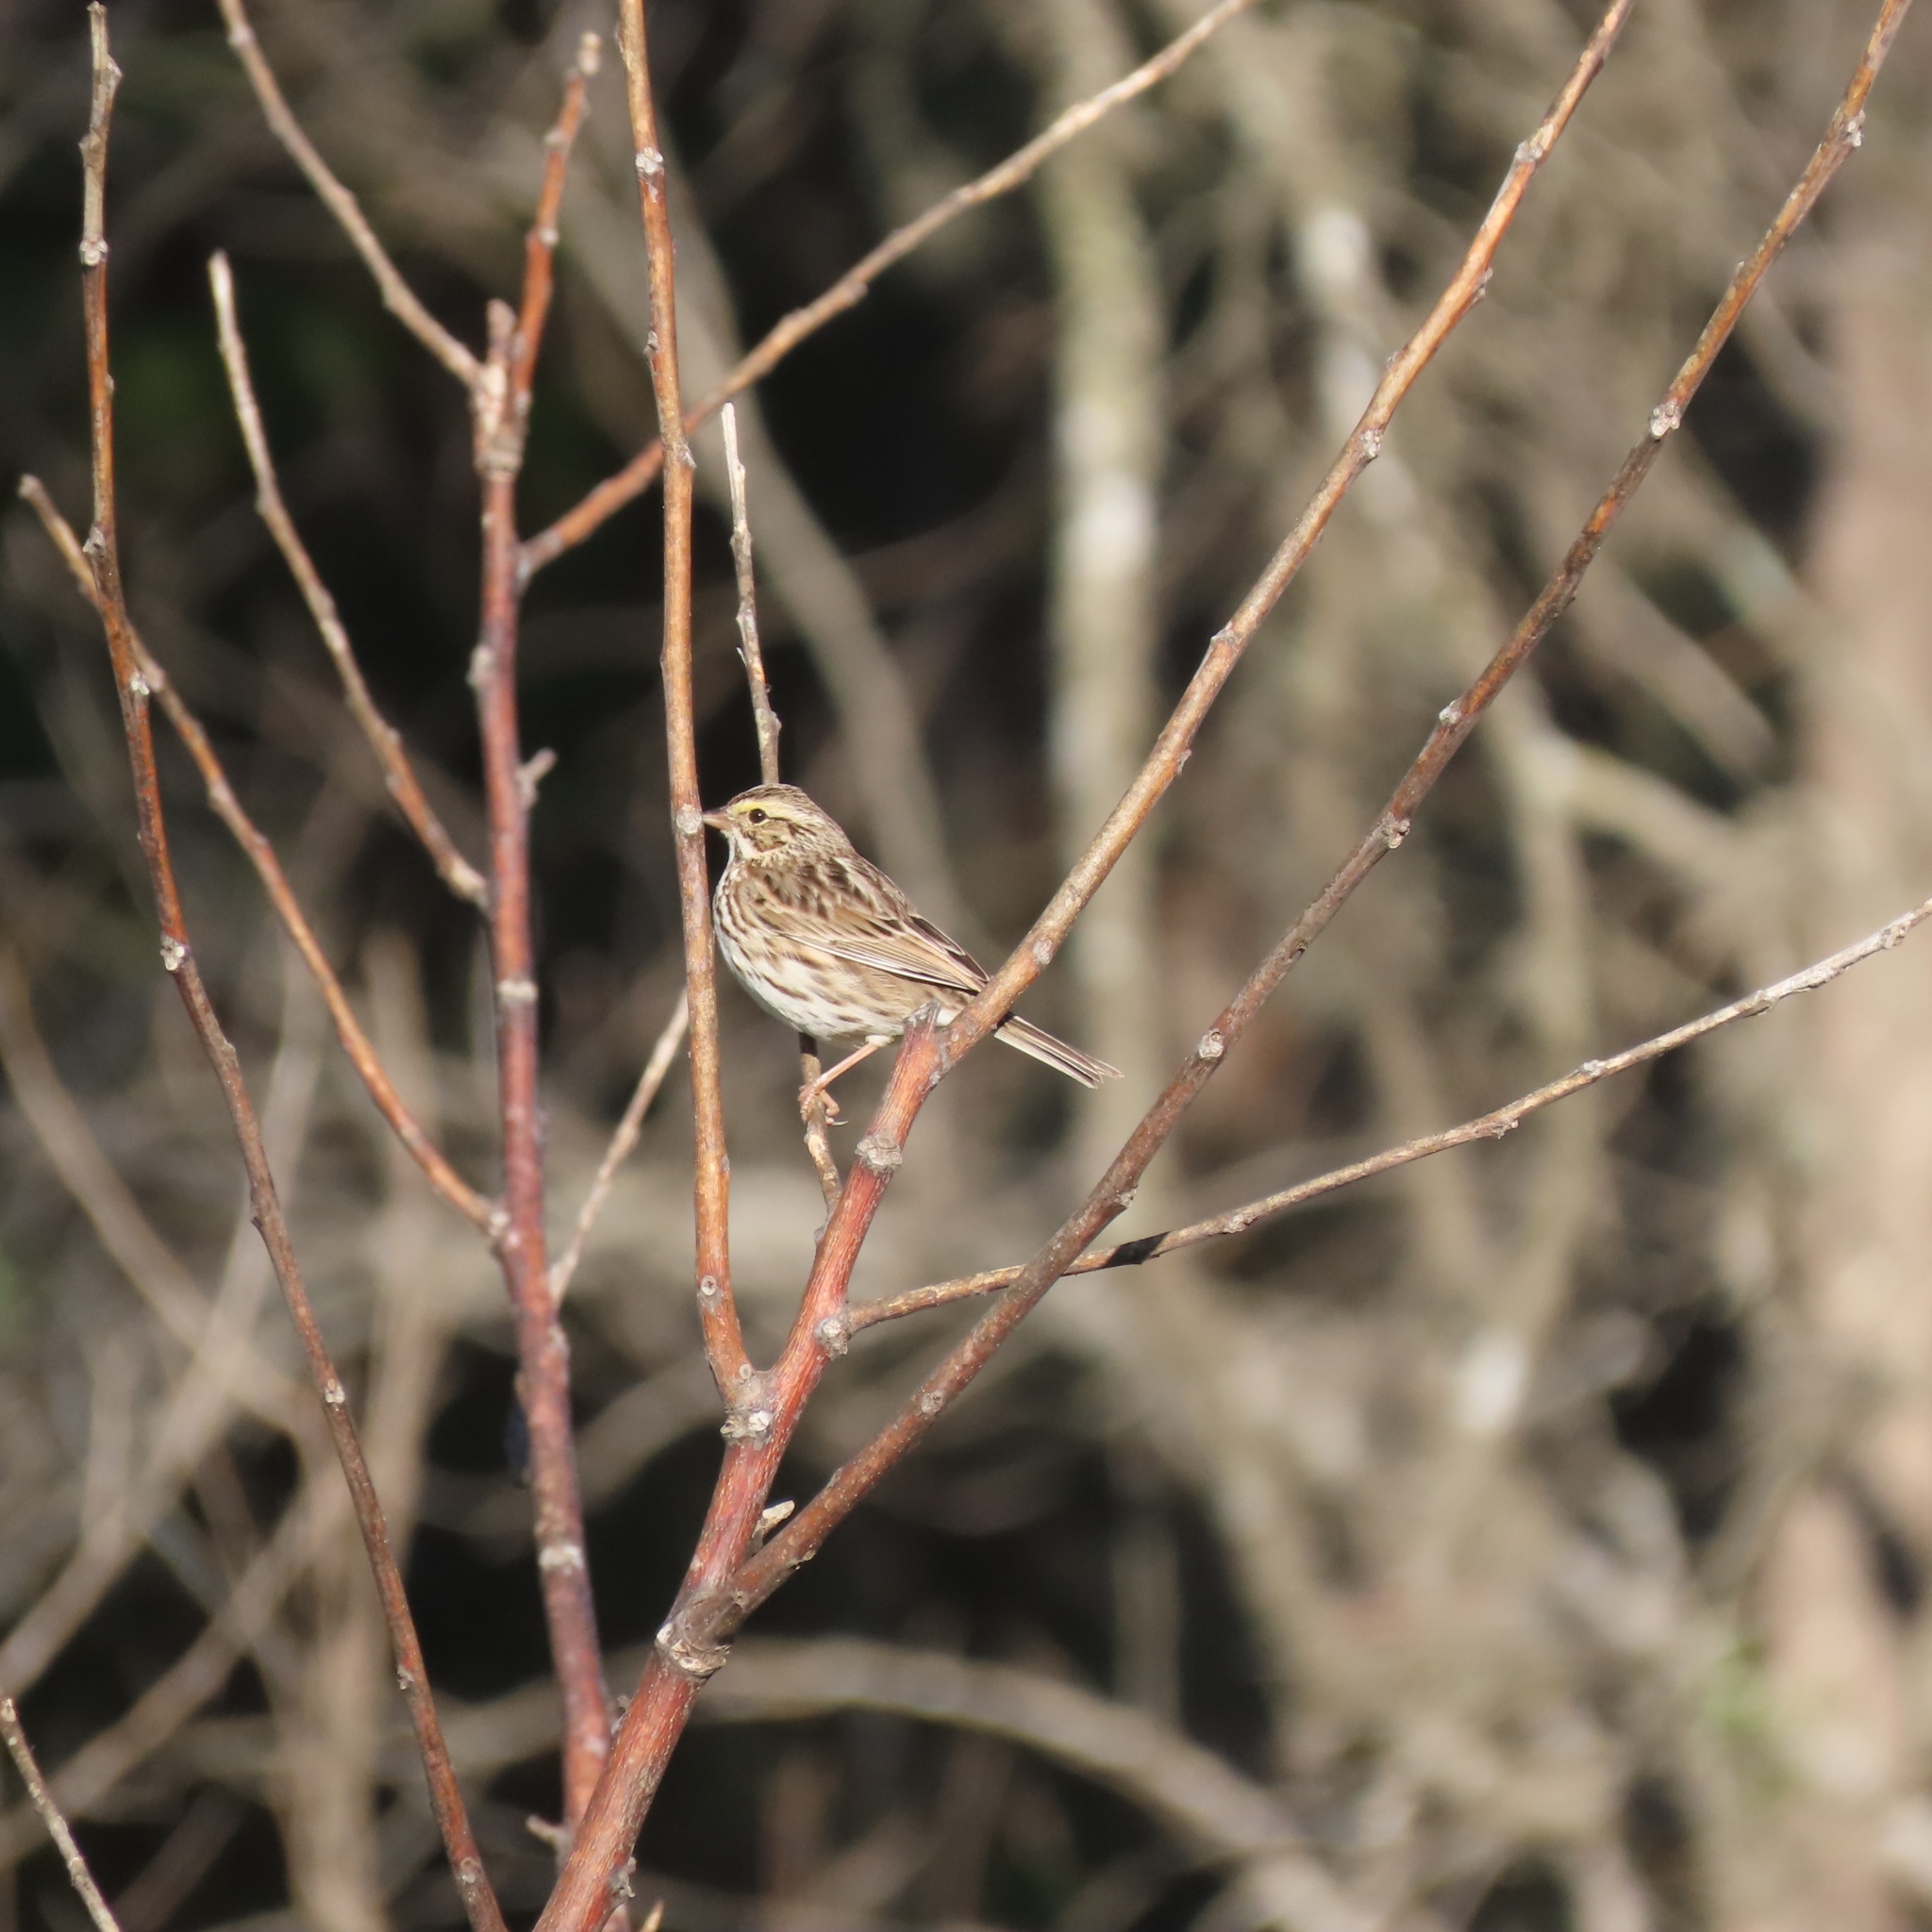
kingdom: Animalia
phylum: Chordata
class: Aves
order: Passeriformes
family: Passerellidae
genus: Passerculus
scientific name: Passerculus sandwichensis
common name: Savannah sparrow
